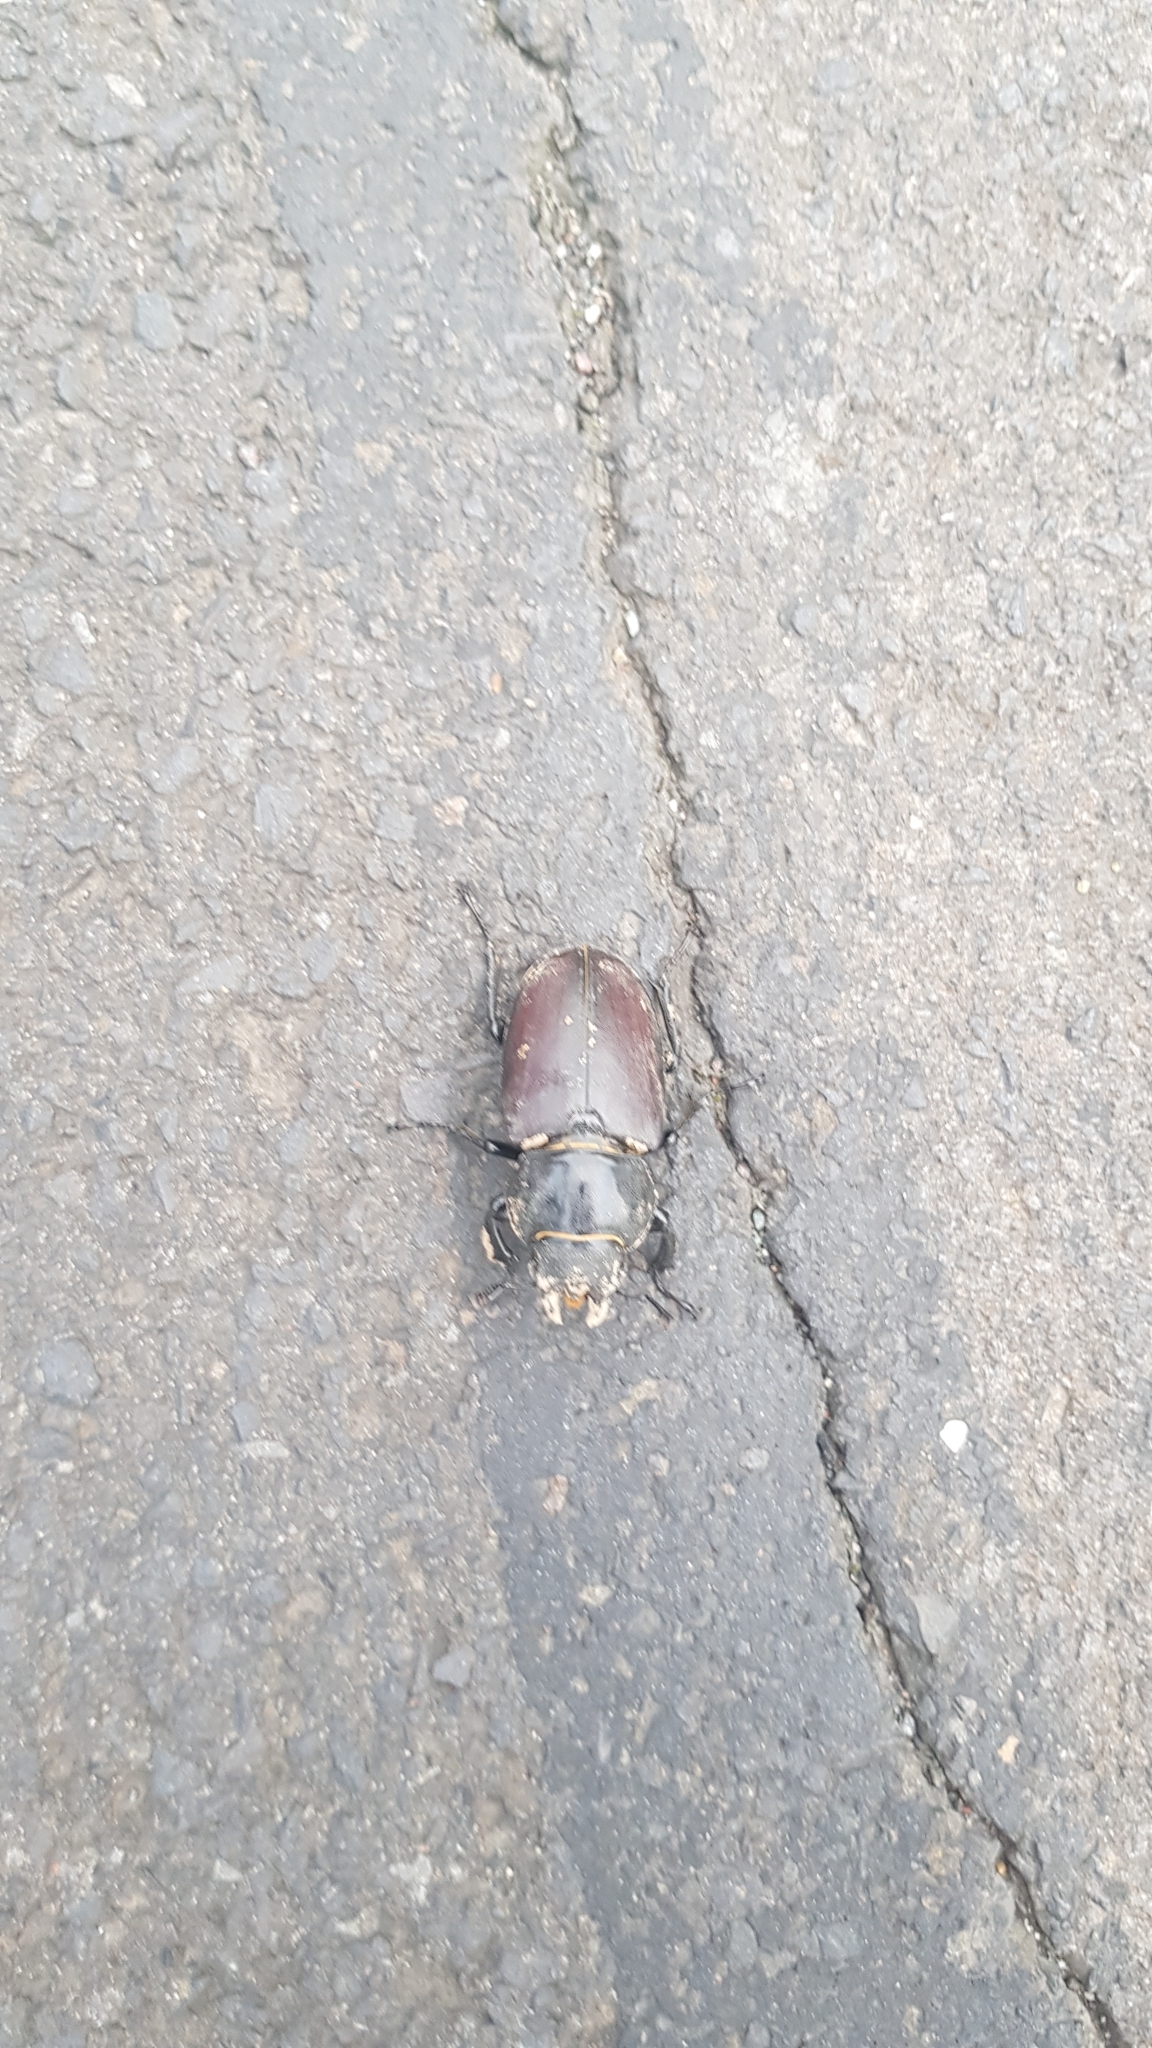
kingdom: Animalia
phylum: Arthropoda
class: Insecta
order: Coleoptera
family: Lucanidae
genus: Lucanus
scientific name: Lucanus cervus
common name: Stag beetle
